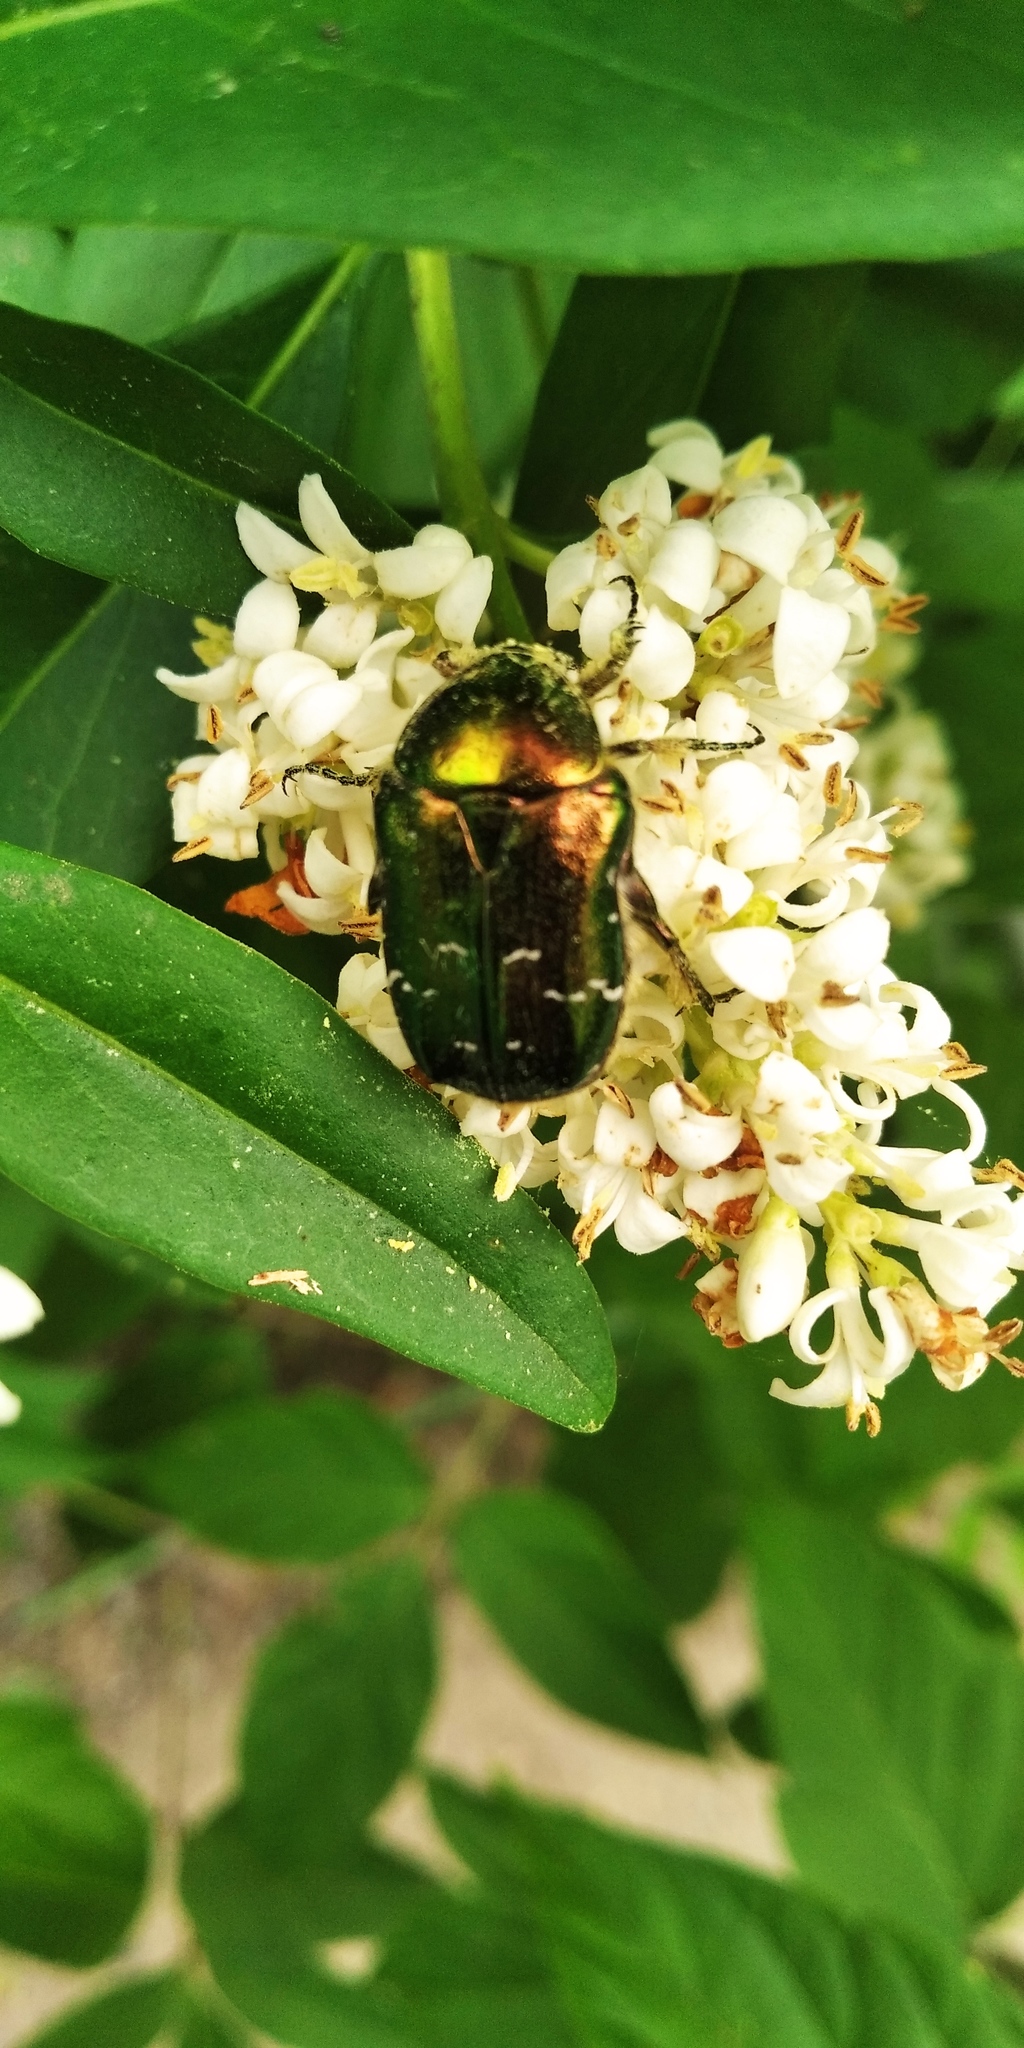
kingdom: Animalia
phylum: Arthropoda
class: Insecta
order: Coleoptera
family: Scarabaeidae
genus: Cetonia
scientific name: Cetonia aurata
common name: Rose chafer
